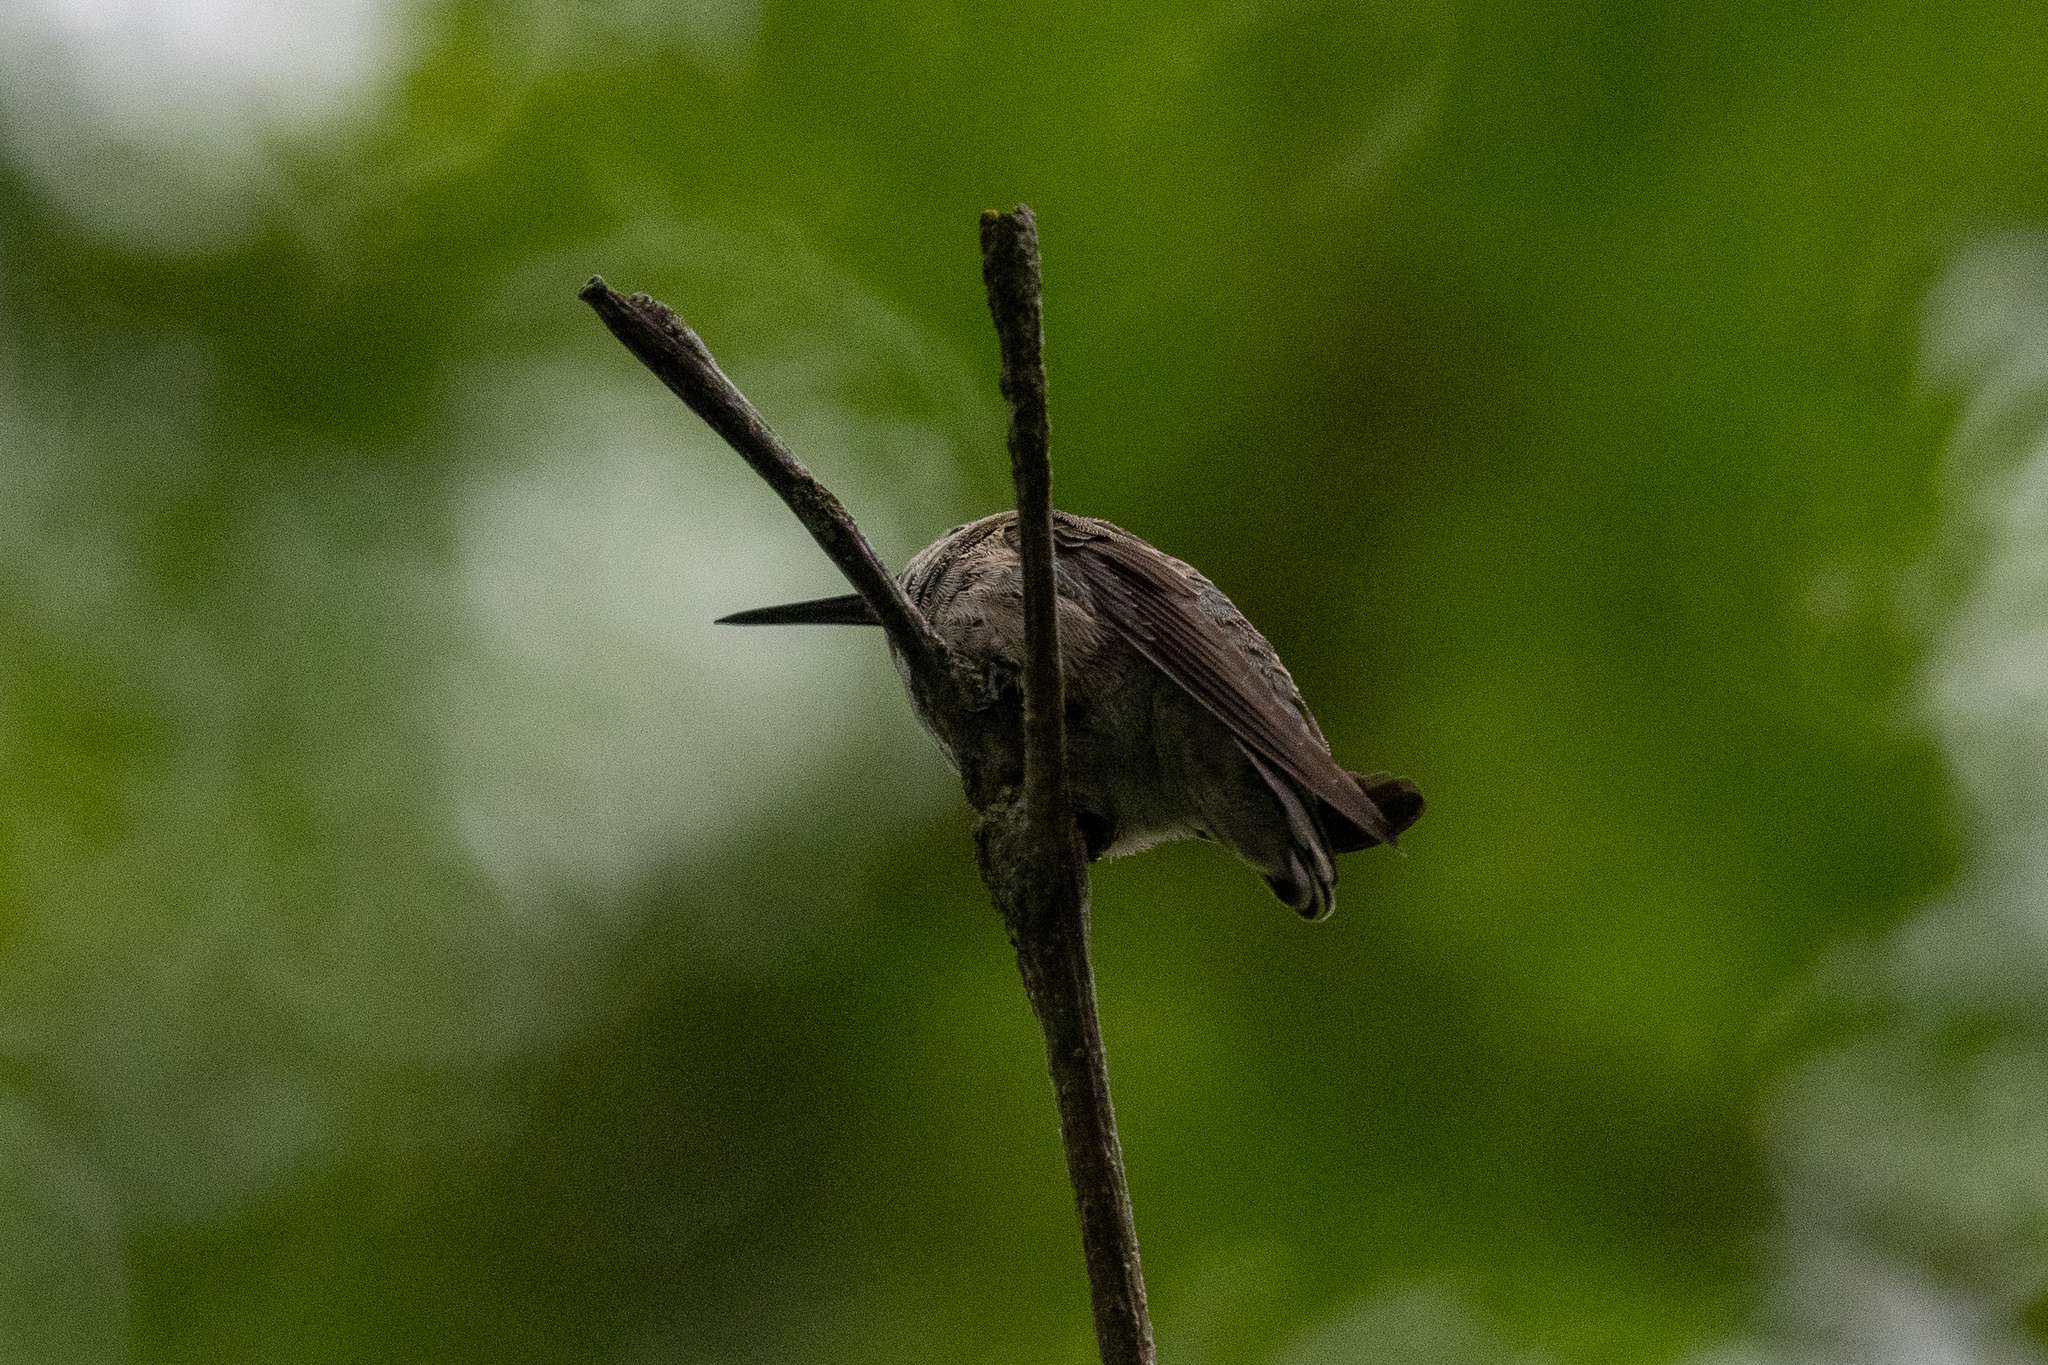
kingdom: Animalia
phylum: Chordata
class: Aves
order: Apodiformes
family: Trochilidae
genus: Calypte
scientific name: Calypte anna
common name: Anna's hummingbird
